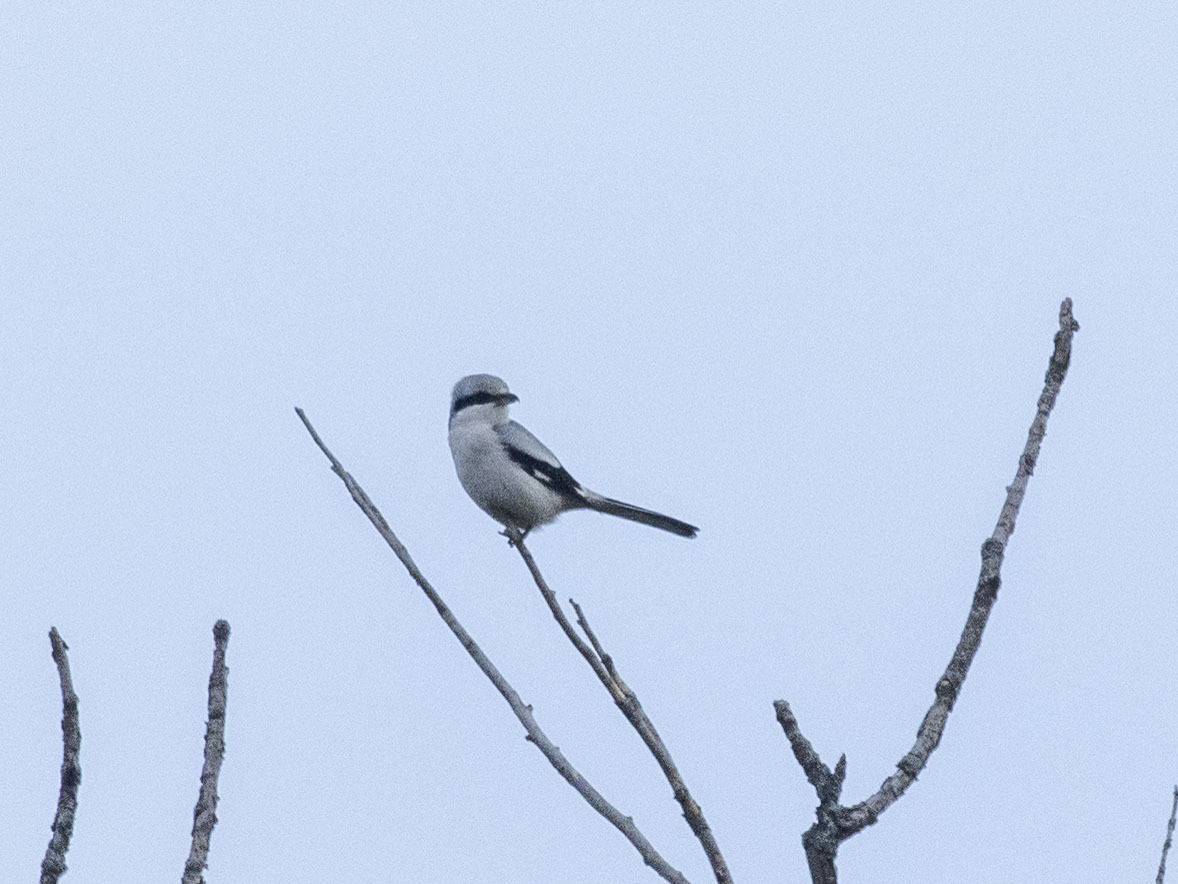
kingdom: Animalia
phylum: Chordata
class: Aves
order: Passeriformes
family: Laniidae
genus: Lanius
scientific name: Lanius excubitor
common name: Great grey shrike
